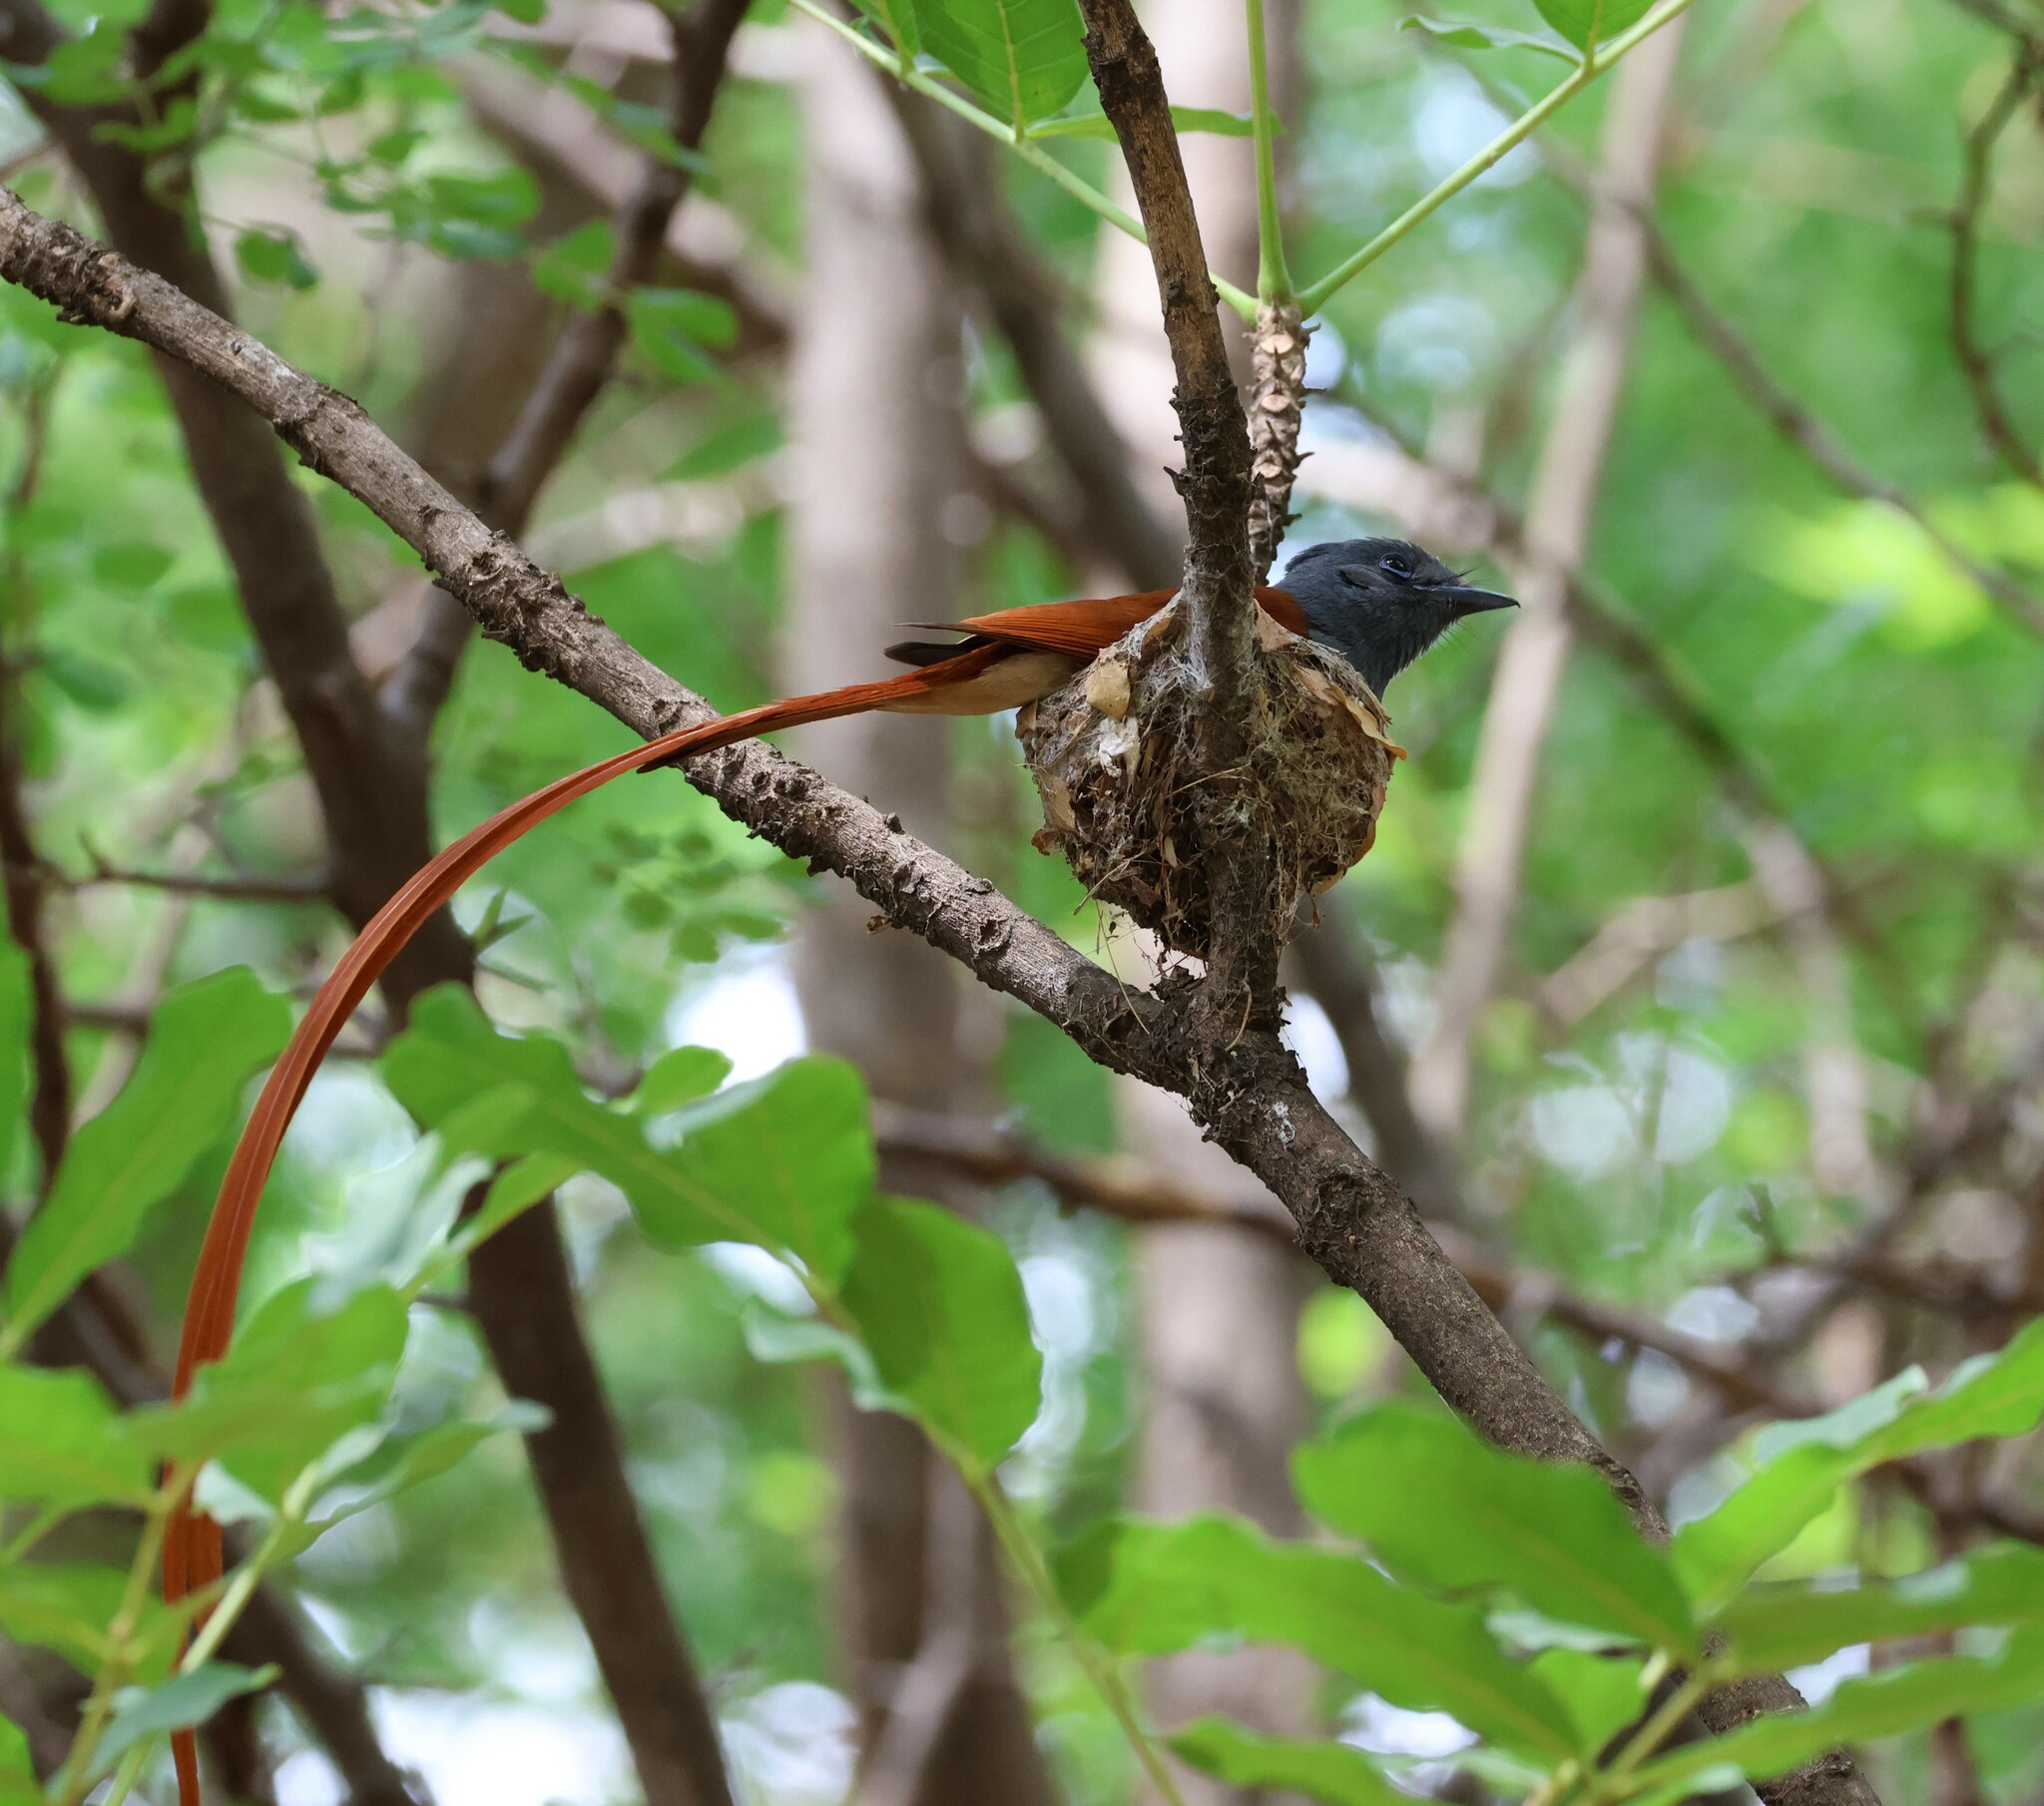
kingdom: Animalia
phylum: Chordata
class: Aves
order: Passeriformes
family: Monarchidae
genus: Terpsiphone
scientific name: Terpsiphone viridis
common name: African paradise flycatcher
